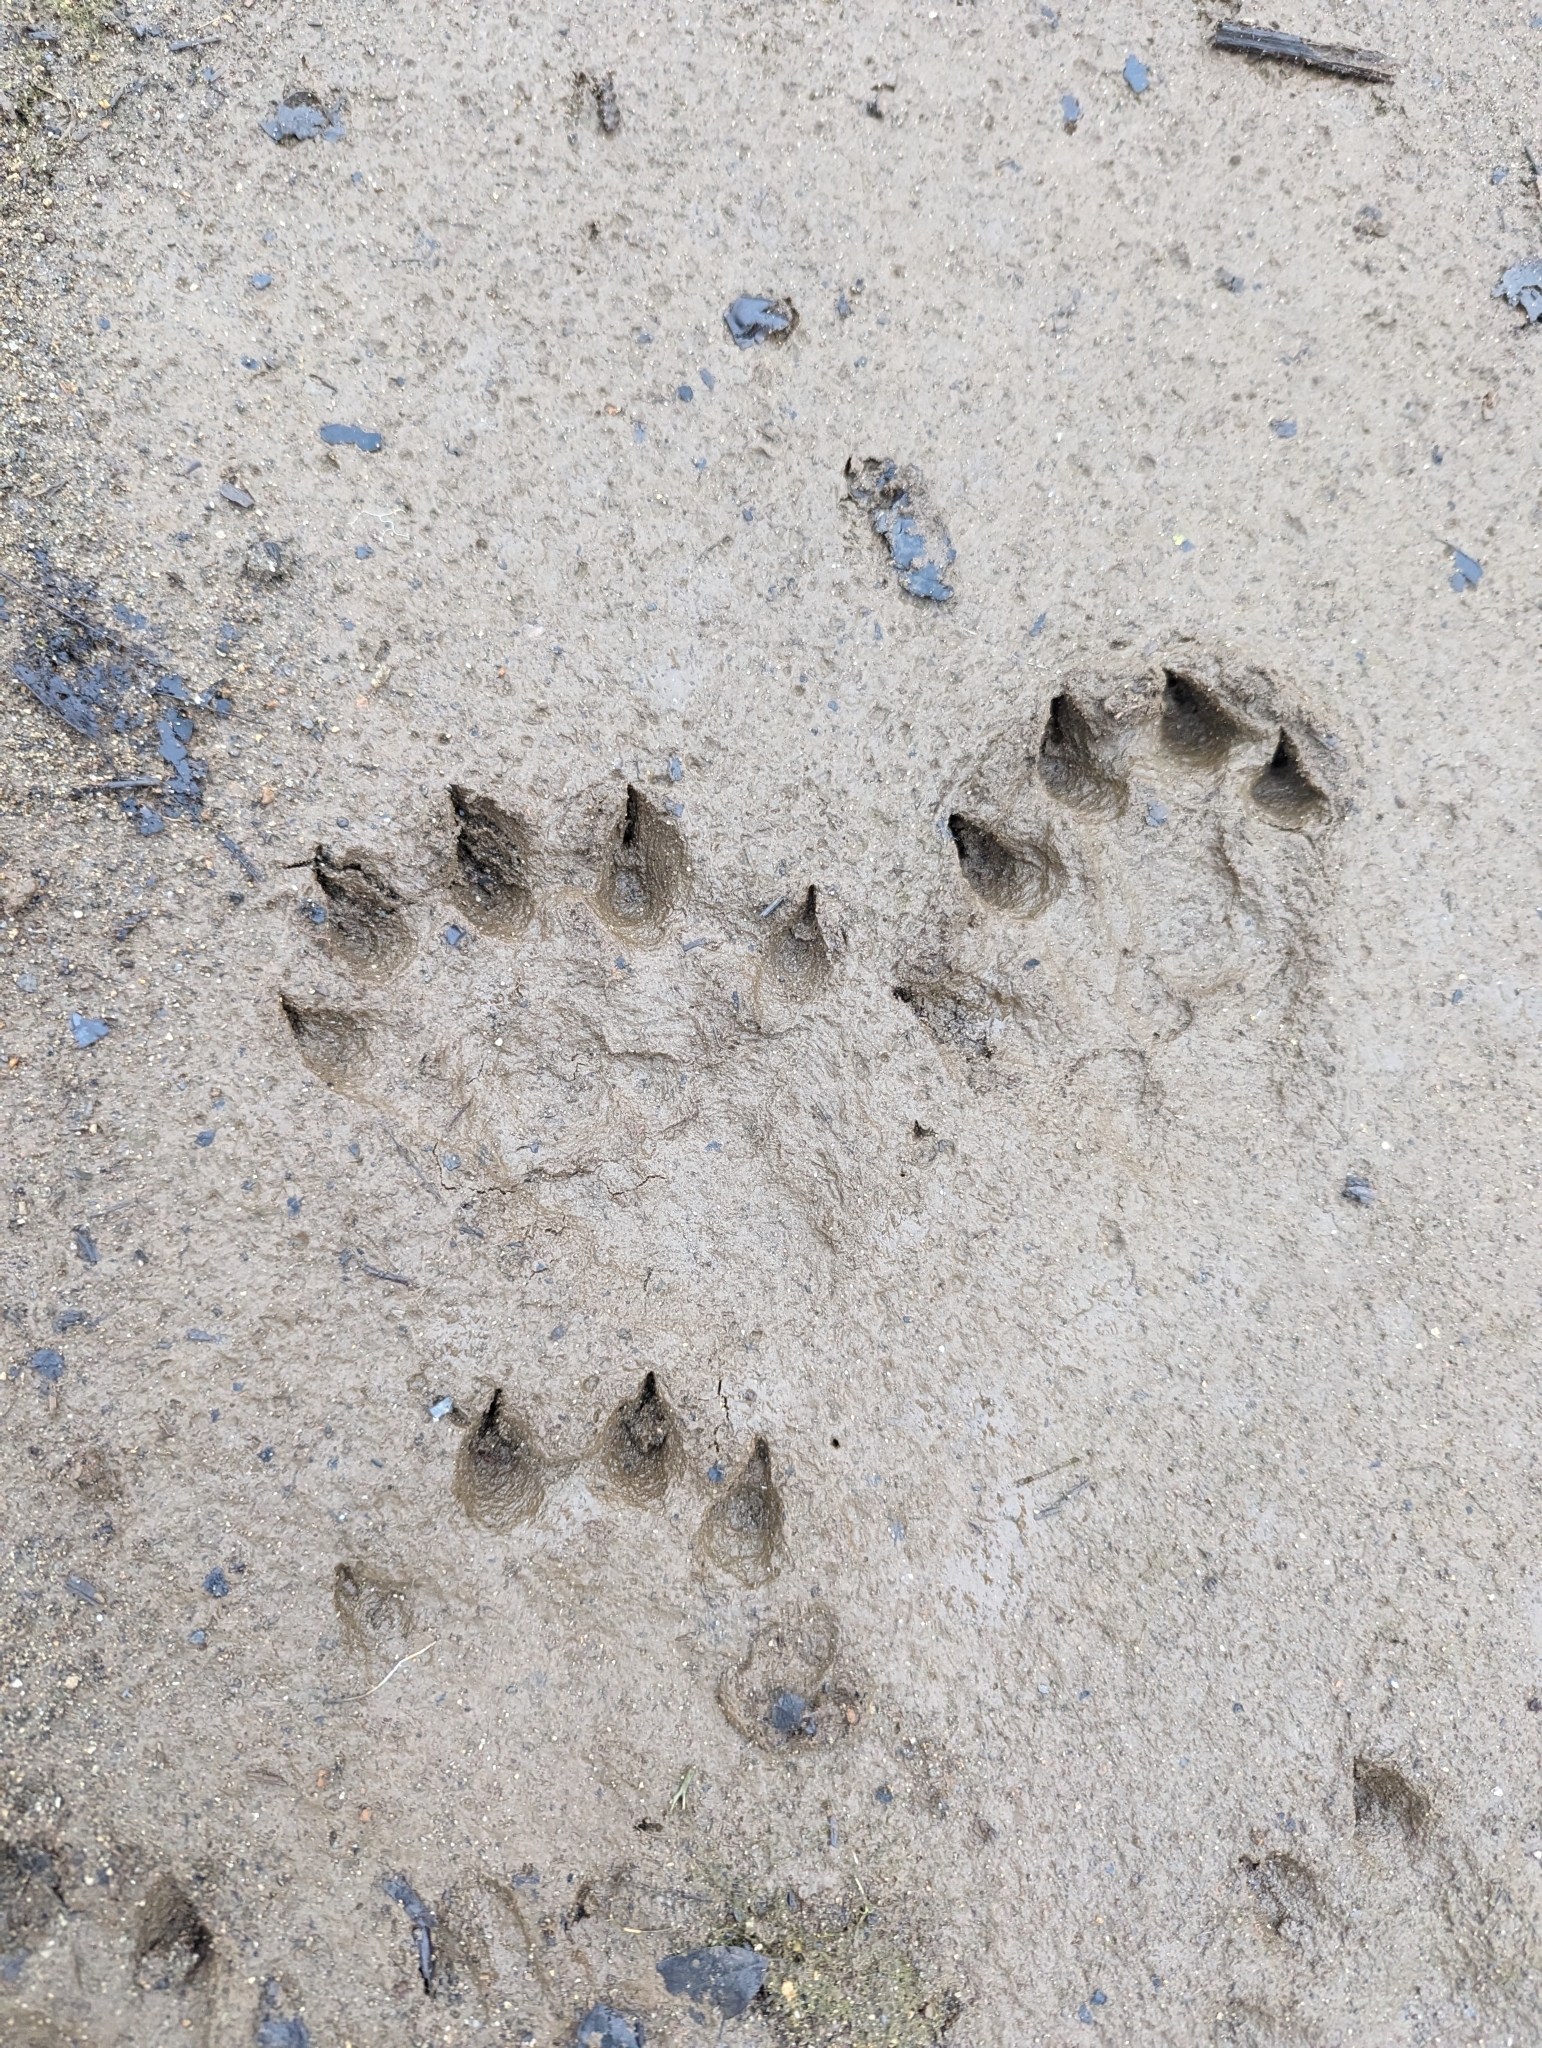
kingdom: Animalia
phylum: Chordata
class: Mammalia
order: Carnivora
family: Mustelidae
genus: Lontra
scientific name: Lontra canadensis
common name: North american river otter
